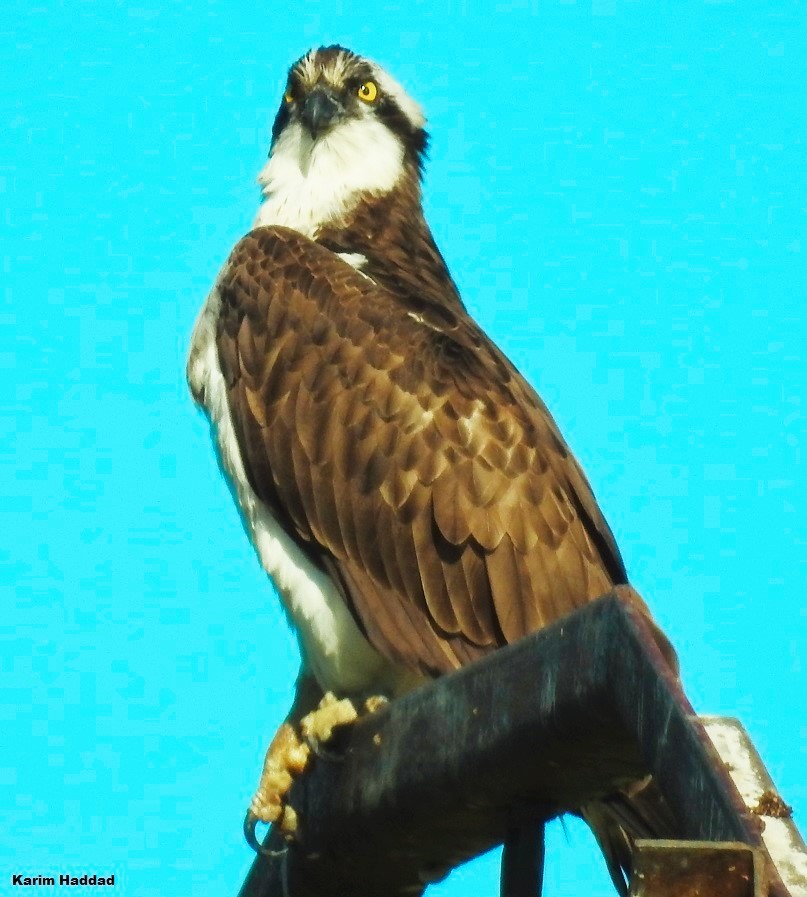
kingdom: Animalia
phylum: Chordata
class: Aves
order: Accipitriformes
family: Pandionidae
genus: Pandion
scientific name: Pandion haliaetus
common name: Osprey
